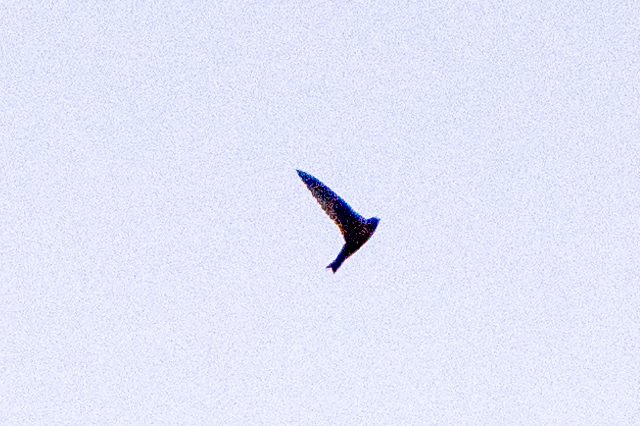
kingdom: Animalia
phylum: Chordata
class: Aves
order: Apodiformes
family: Apodidae
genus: Cypseloides
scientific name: Cypseloides niger
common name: Black swift
